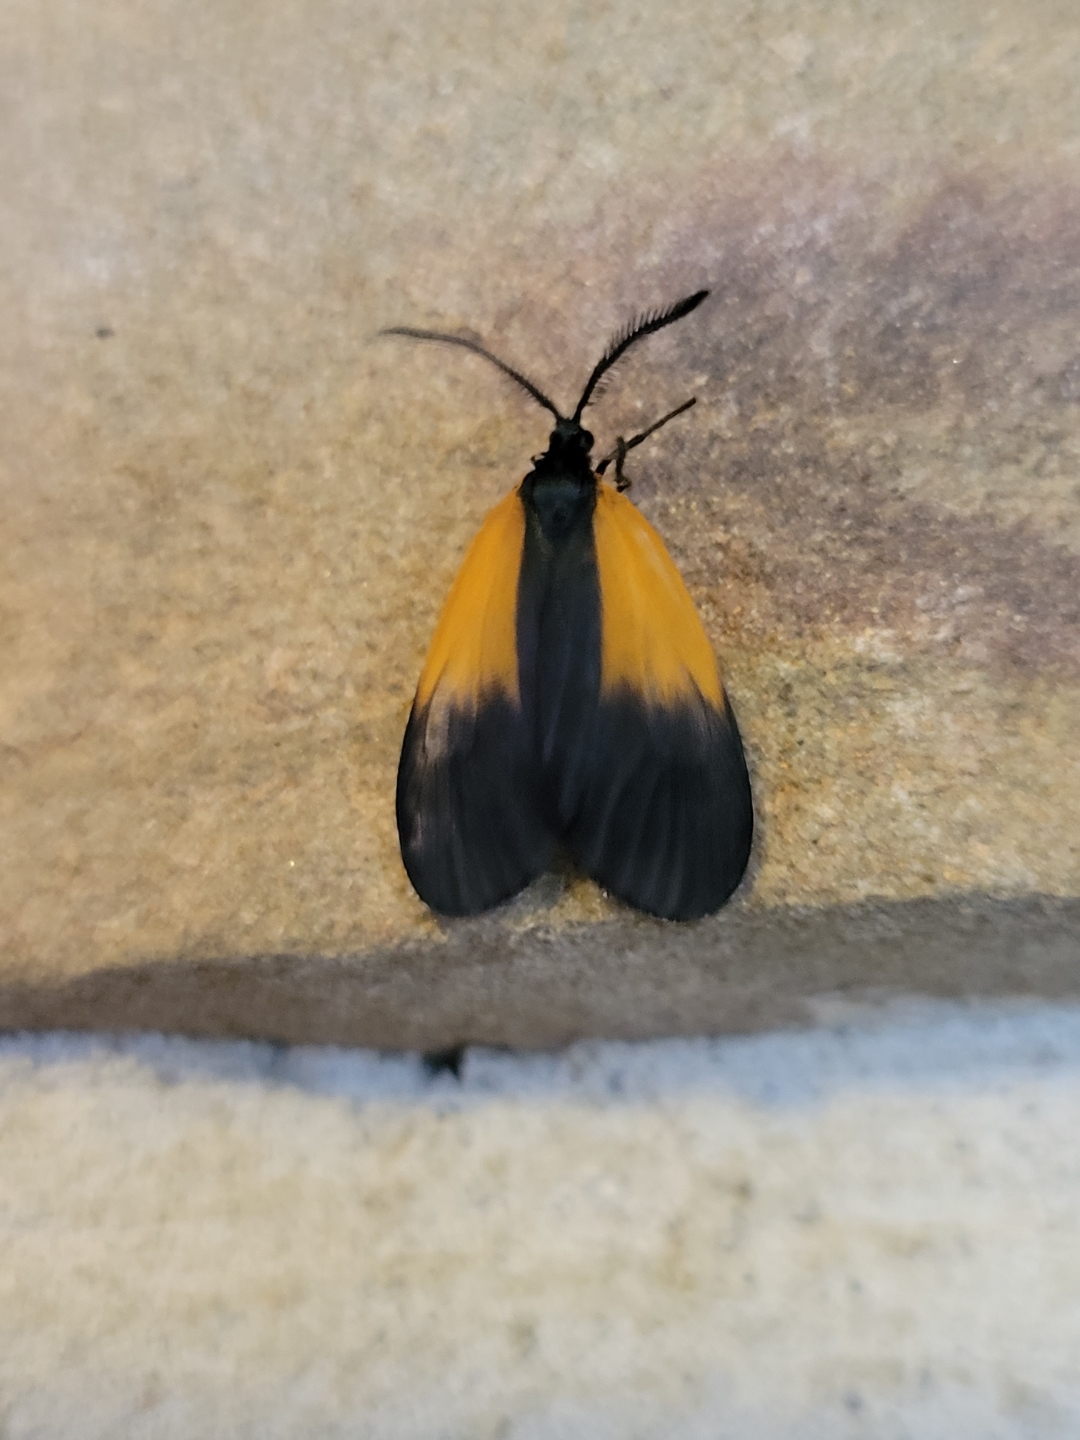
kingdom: Animalia
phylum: Arthropoda
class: Insecta
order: Lepidoptera
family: Zygaenidae
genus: Malthaca
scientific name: Malthaca dimidiata
